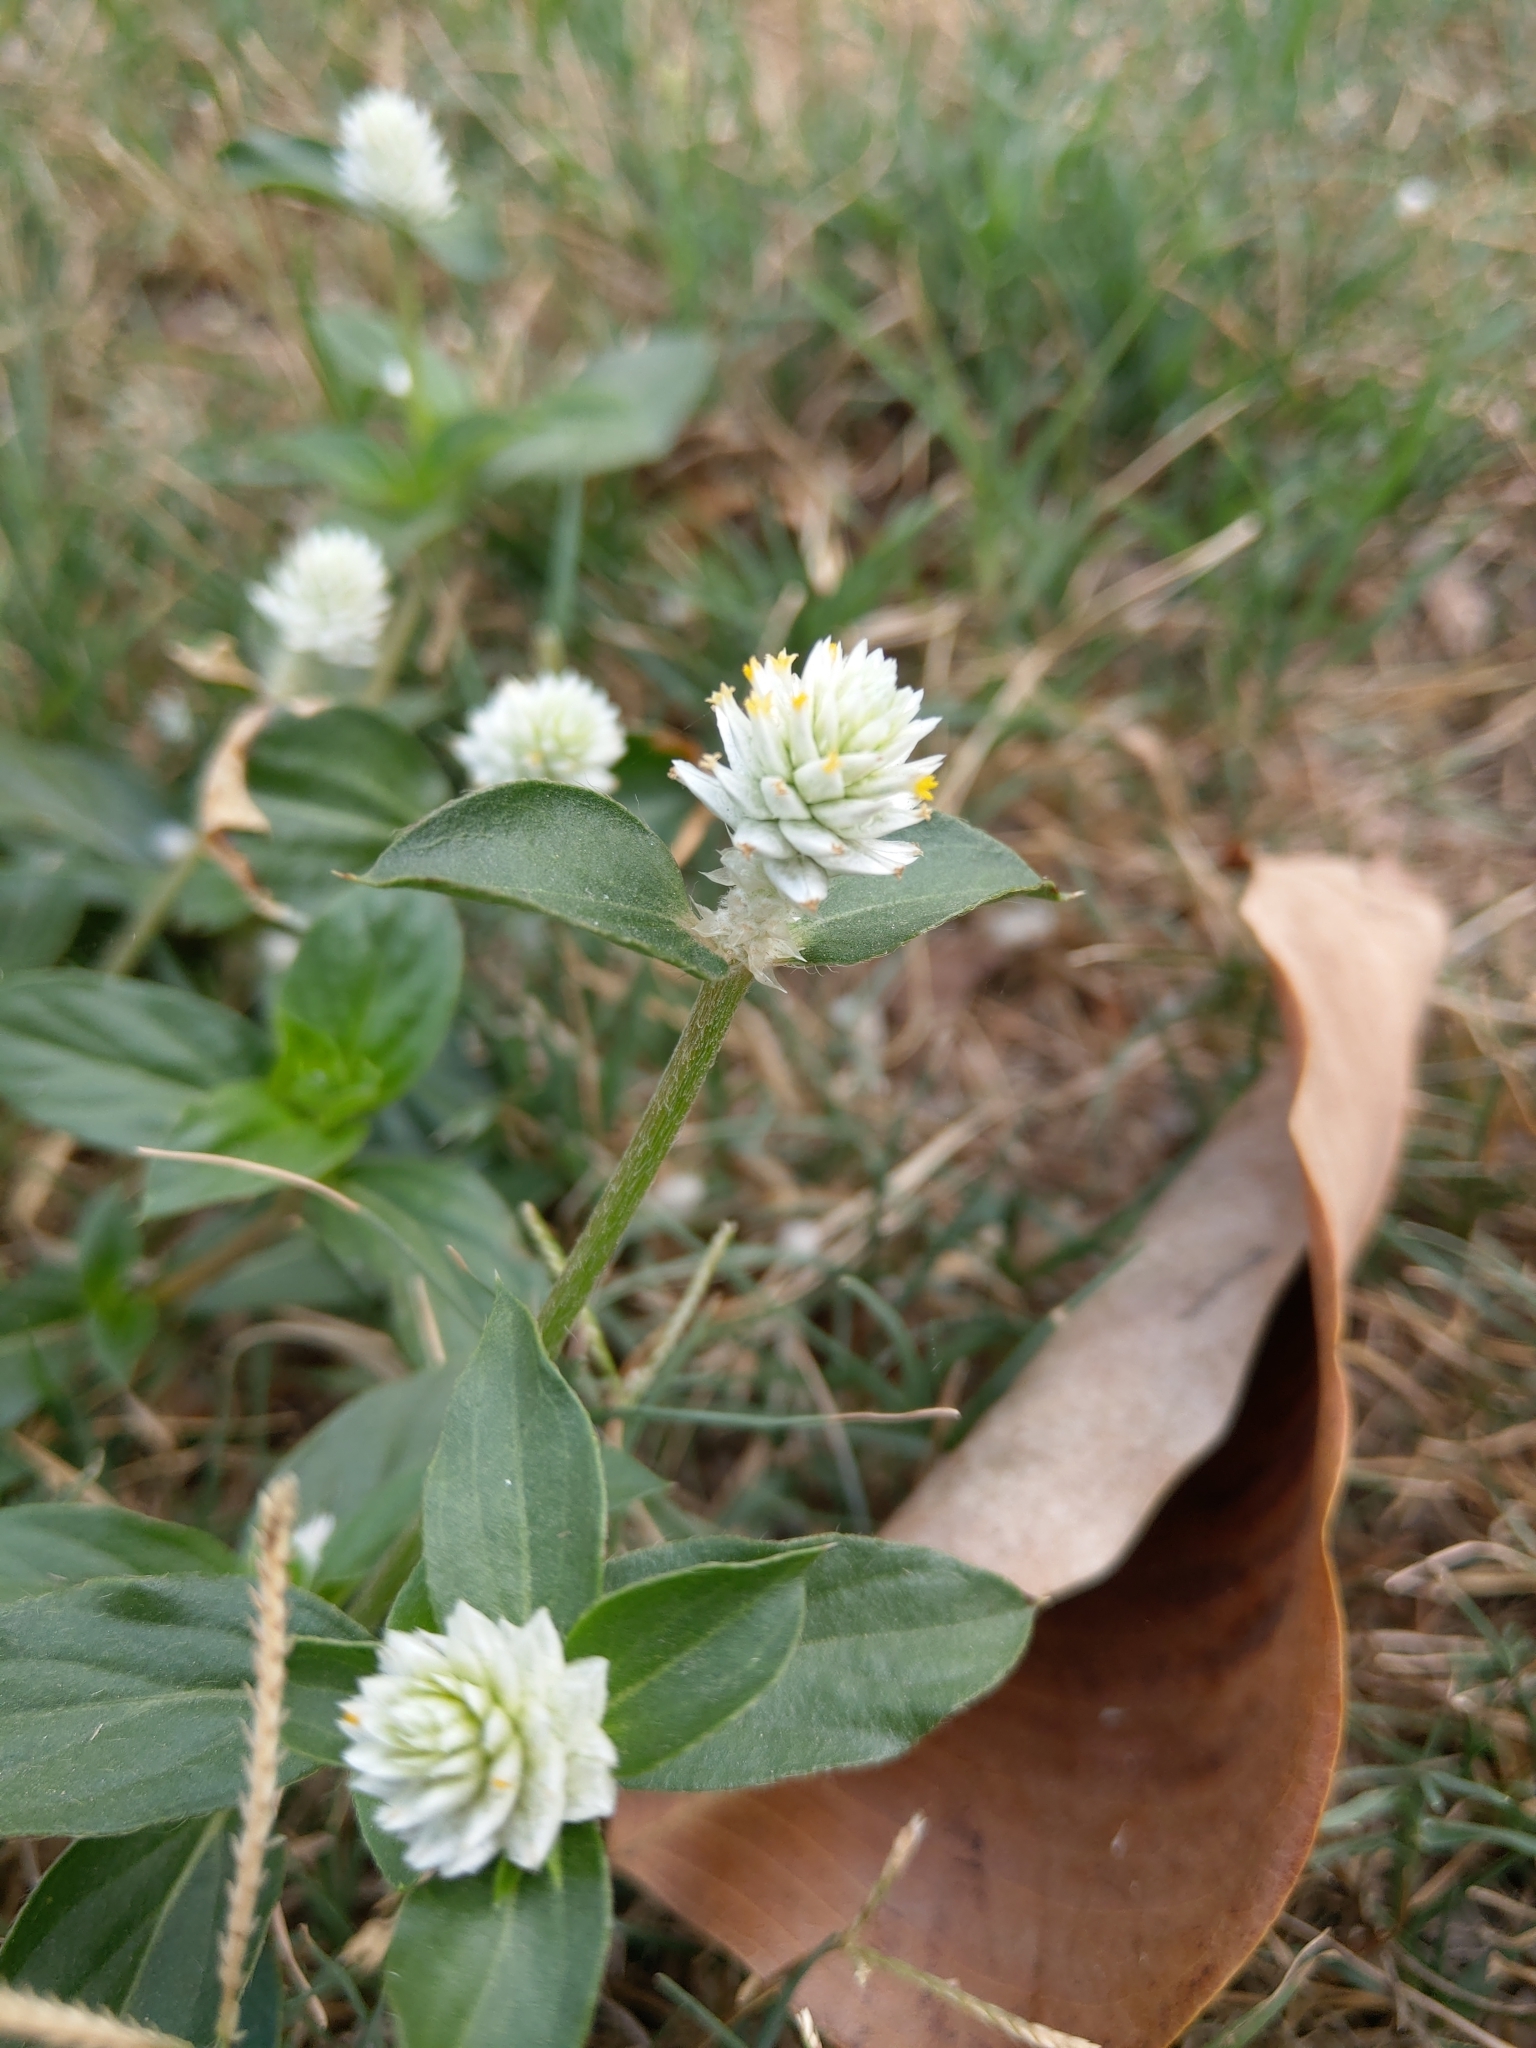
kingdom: Plantae
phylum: Tracheophyta
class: Magnoliopsida
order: Caryophyllales
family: Amaranthaceae
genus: Gomphrena
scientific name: Gomphrena serrata
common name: Arrasa con todo
